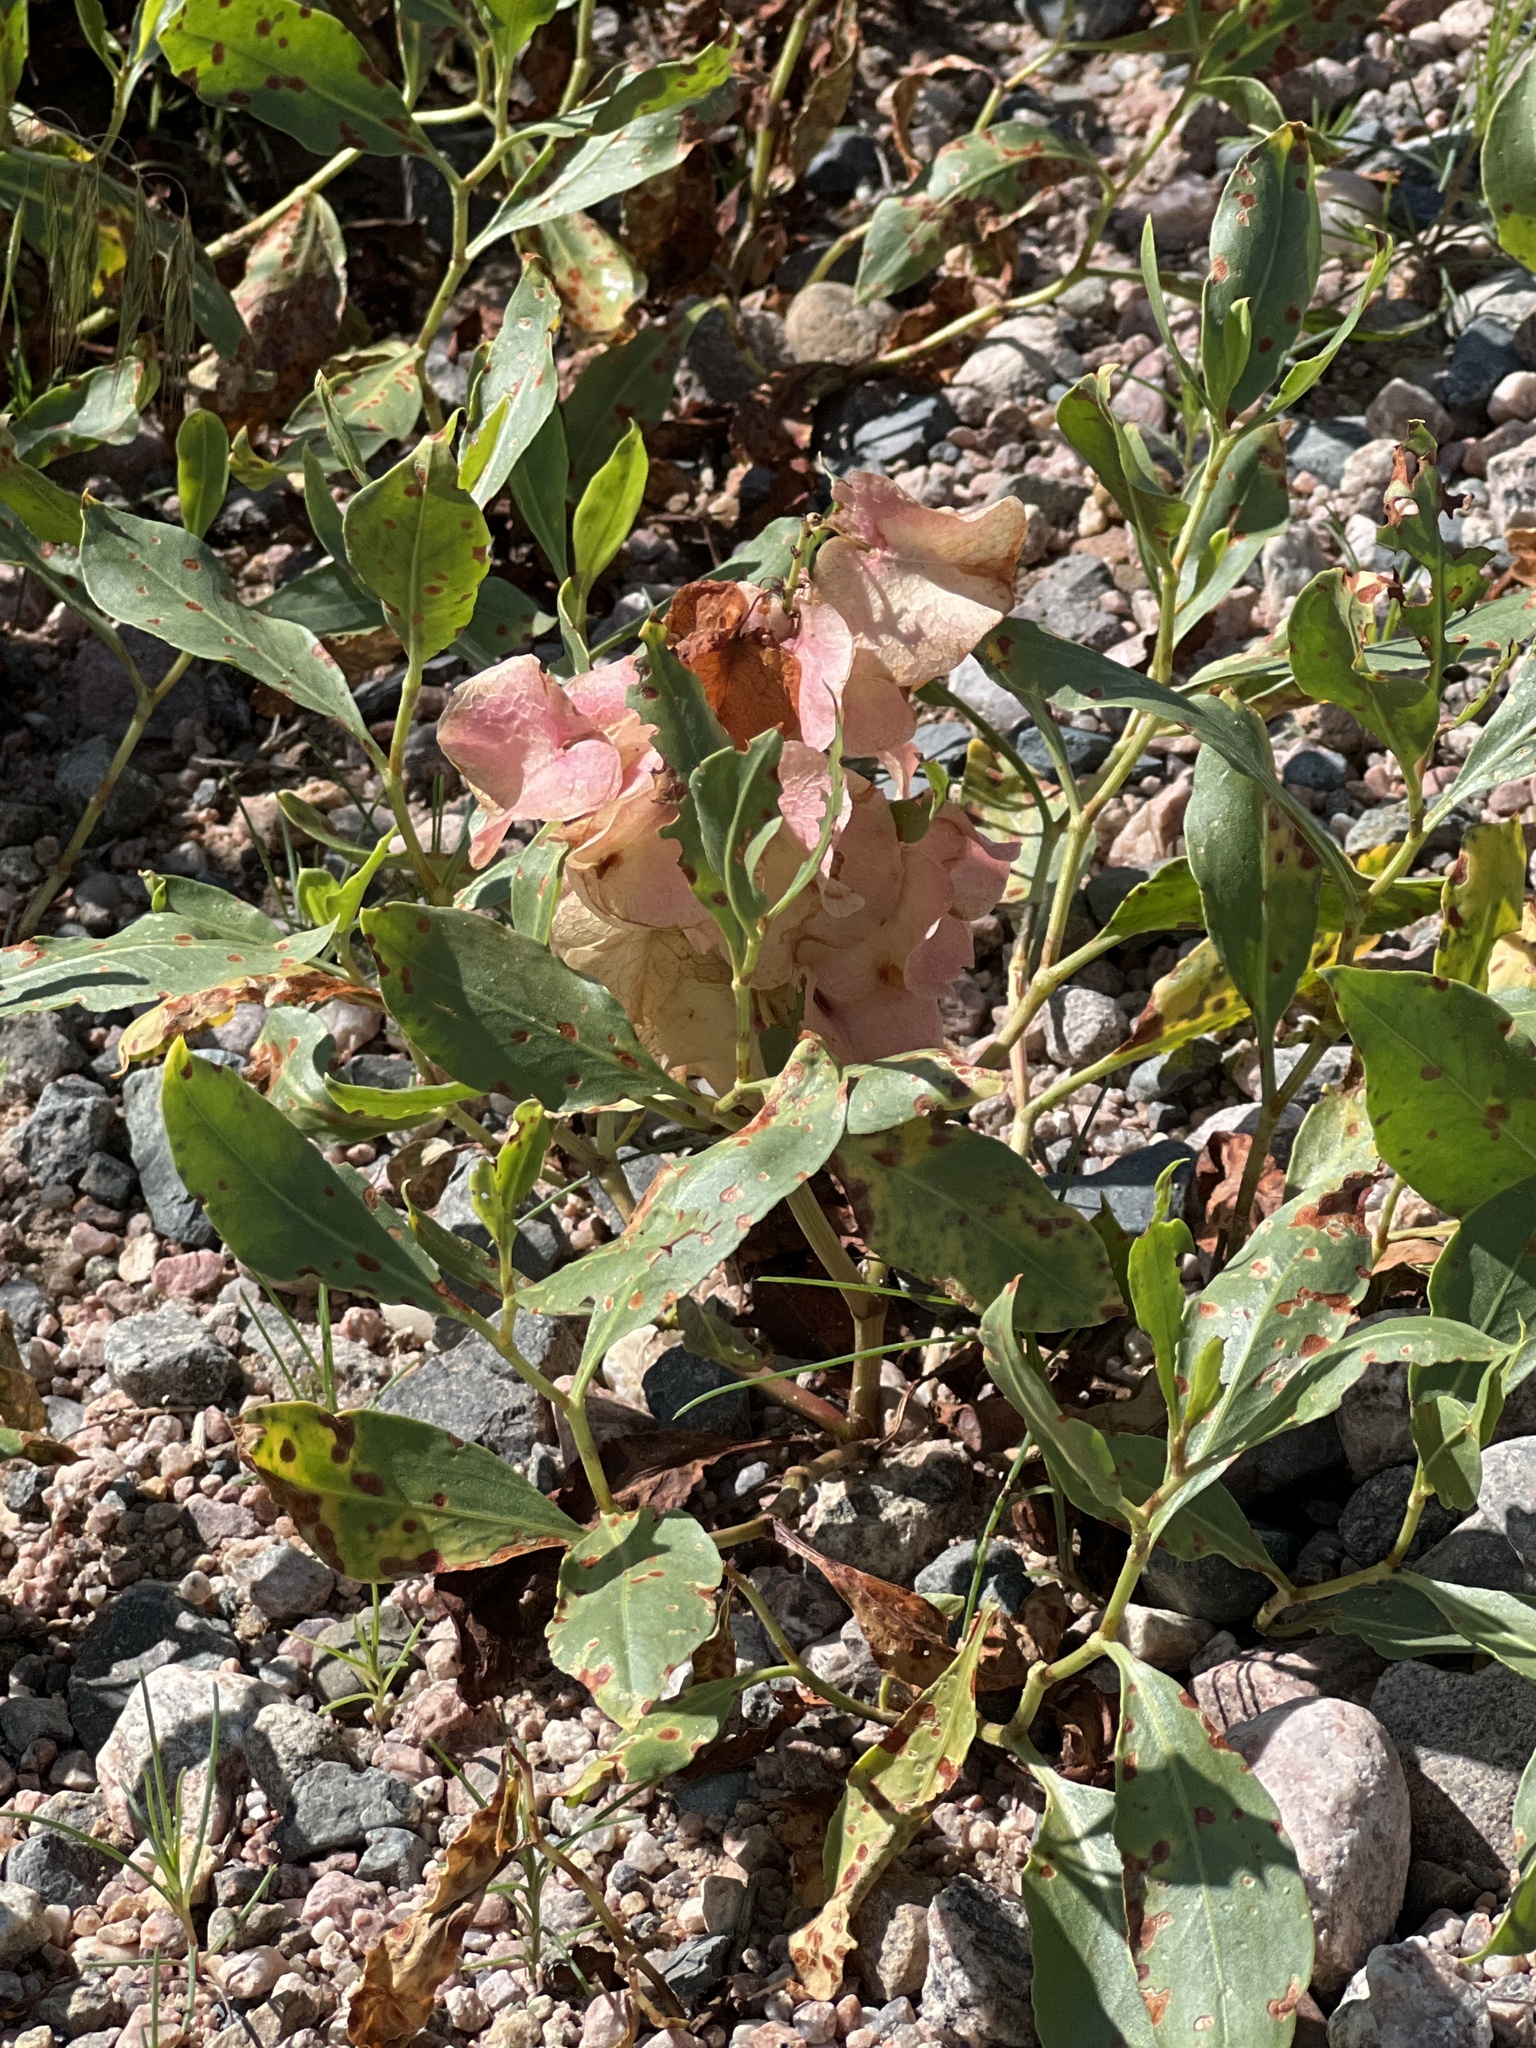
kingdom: Plantae
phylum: Tracheophyta
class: Magnoliopsida
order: Caryophyllales
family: Polygonaceae
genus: Rumex
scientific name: Rumex venosus
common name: Winged dock
